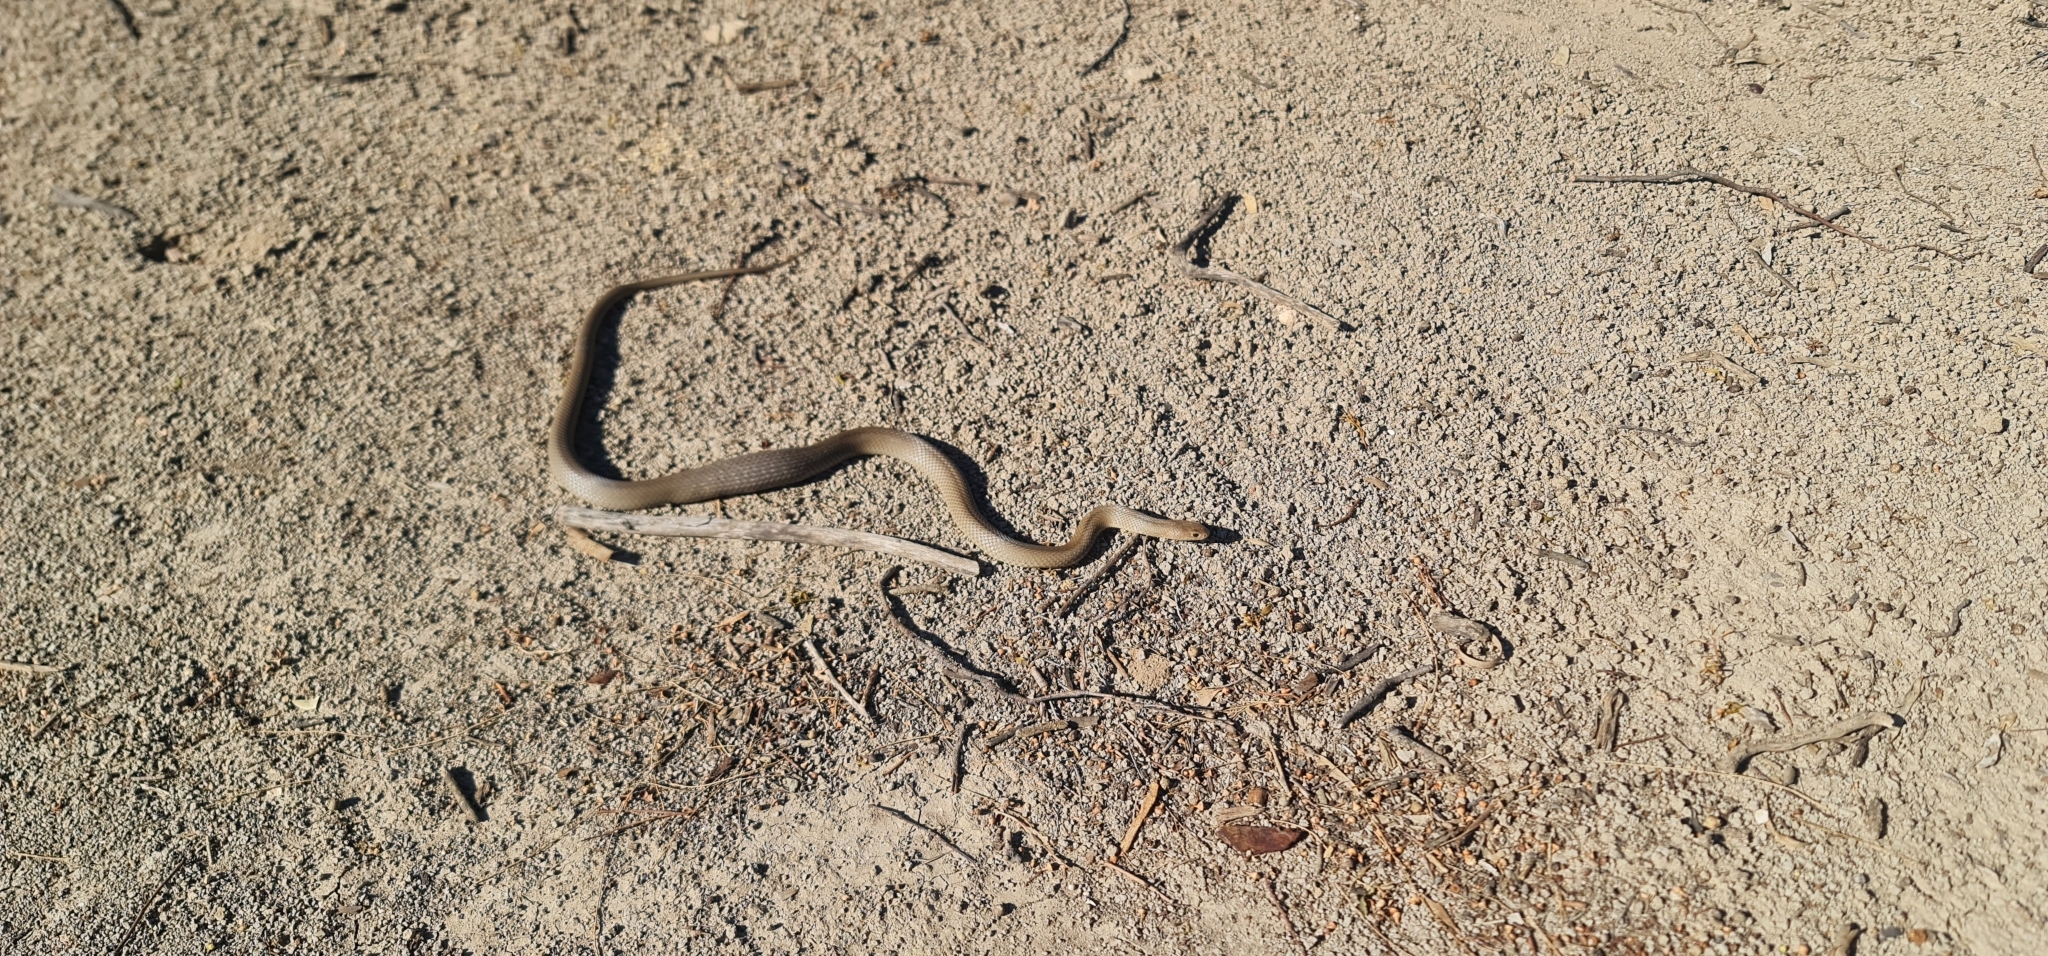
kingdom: Animalia
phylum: Chordata
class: Squamata
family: Elapidae
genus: Pseudonaja
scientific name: Pseudonaja textilis
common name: Eastern brown snake
